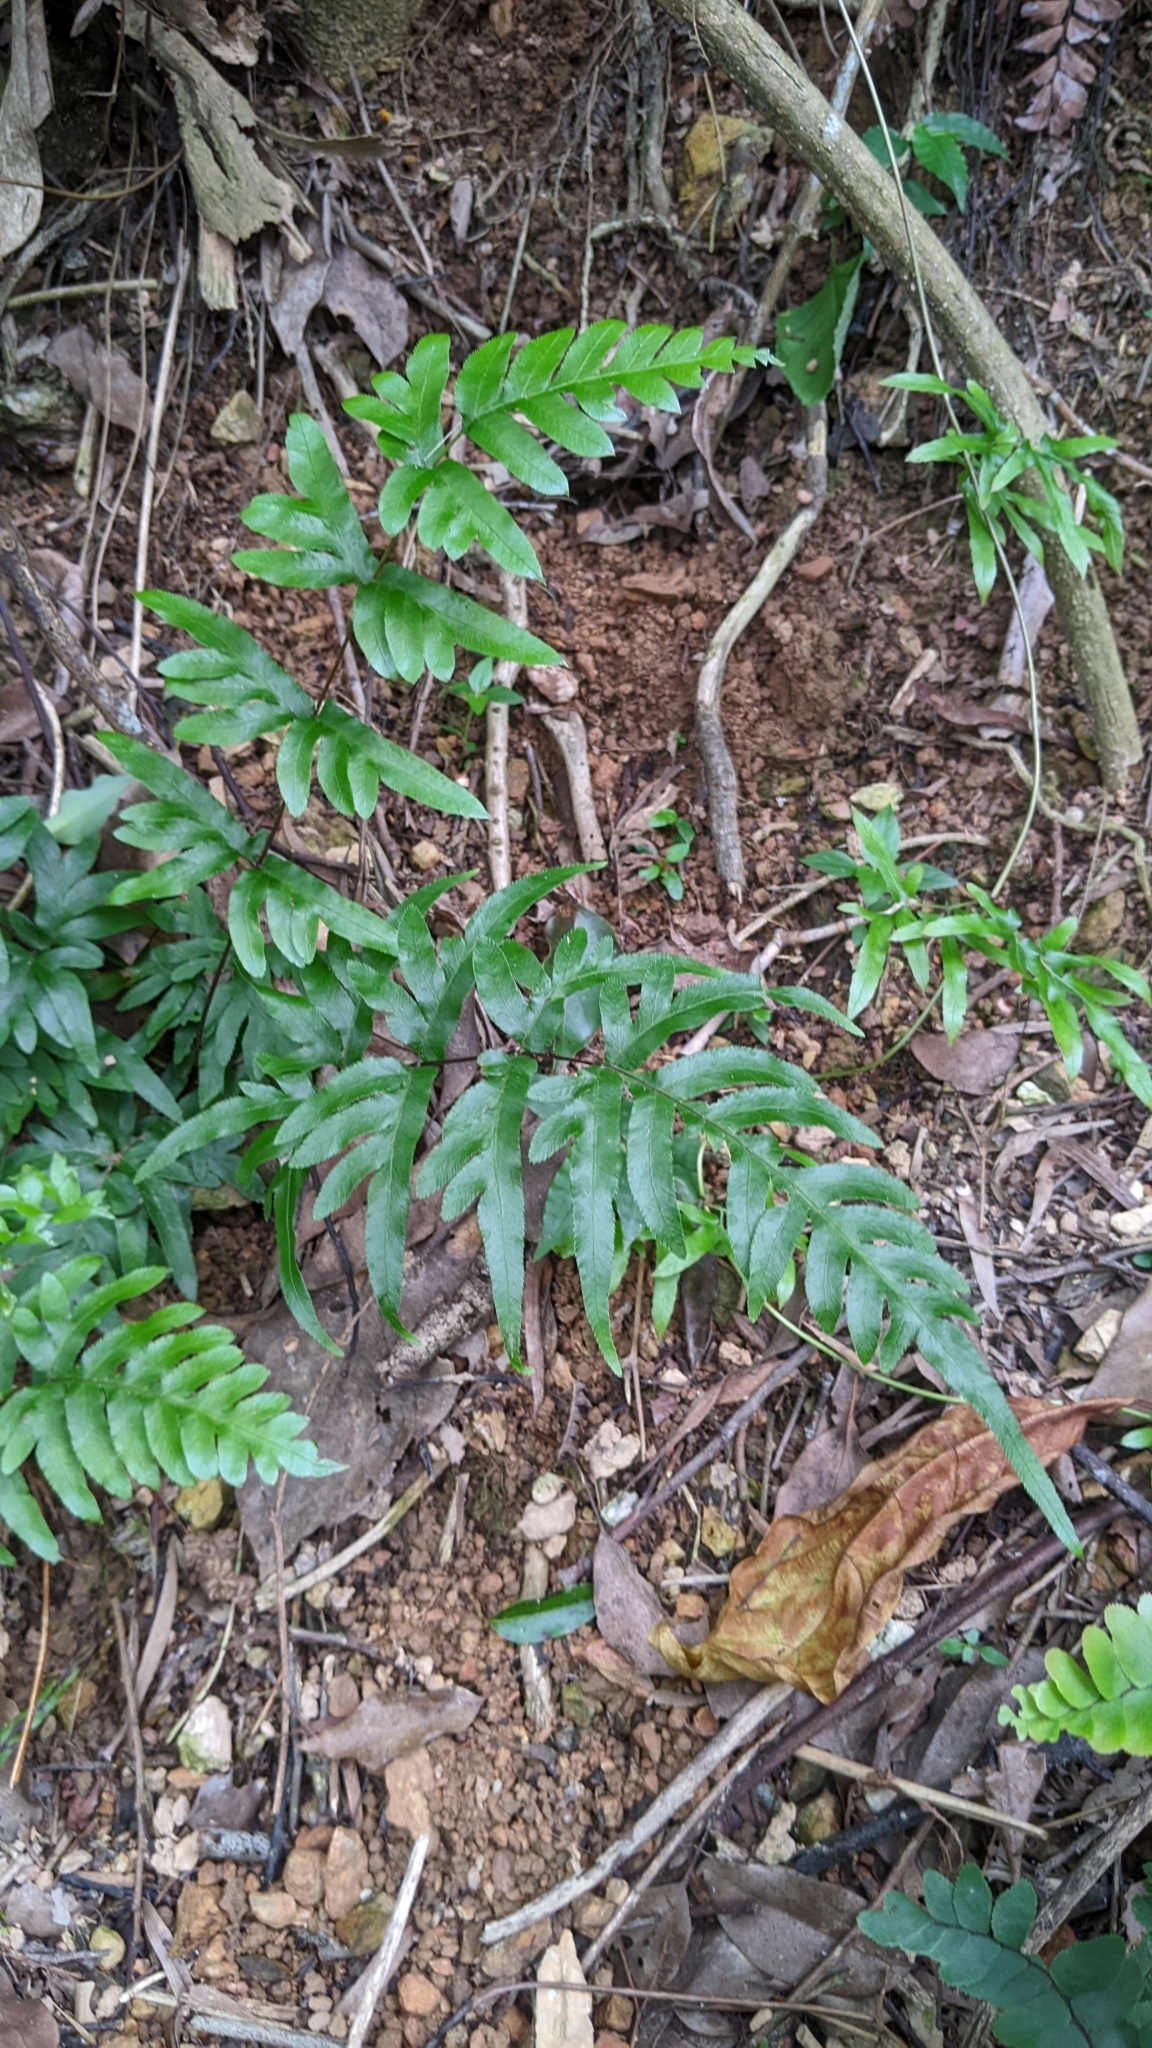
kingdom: Plantae
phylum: Tracheophyta
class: Polypodiopsida
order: Polypodiales
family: Pteridaceae
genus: Pteris
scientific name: Pteris semipinnata
